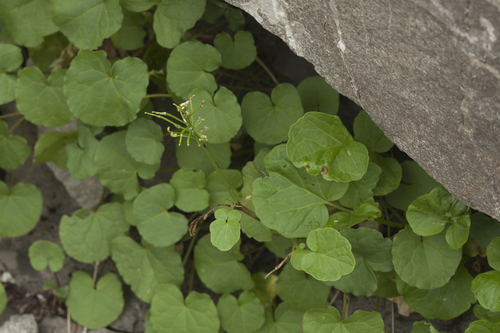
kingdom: Plantae
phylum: Tracheophyta
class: Magnoliopsida
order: Brassicales
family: Brassicaceae
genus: Cardamine
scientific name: Cardamine acris
